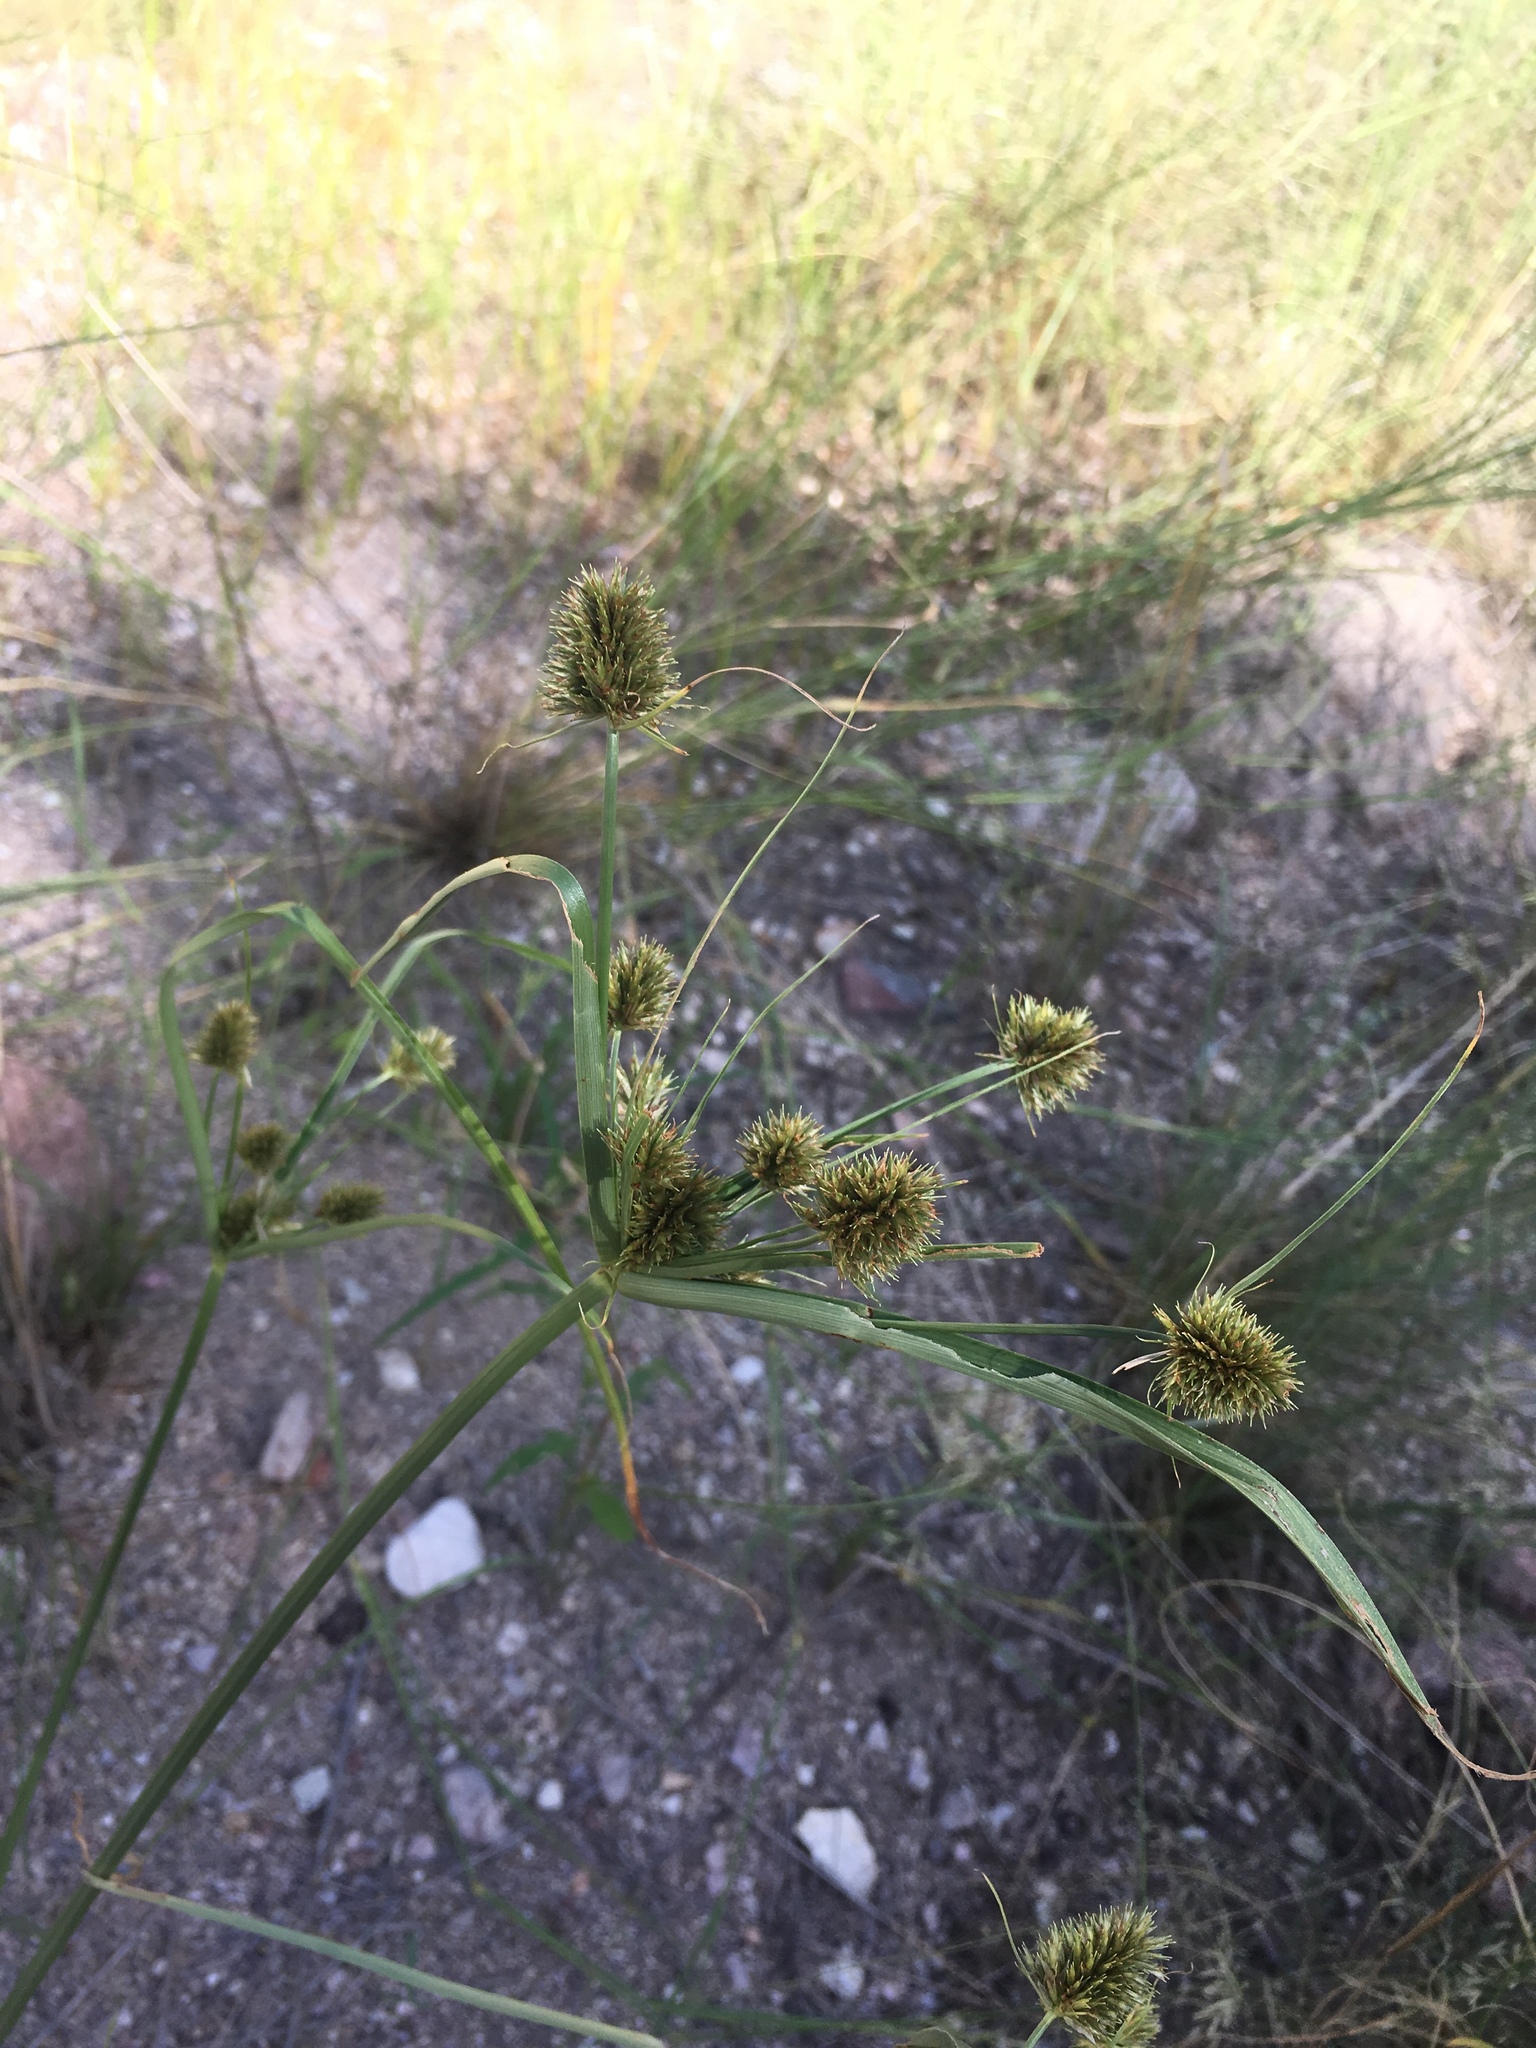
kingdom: Plantae
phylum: Tracheophyta
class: Liliopsida
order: Poales
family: Cyperaceae
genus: Cyperus
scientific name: Cyperus dipsaceus
